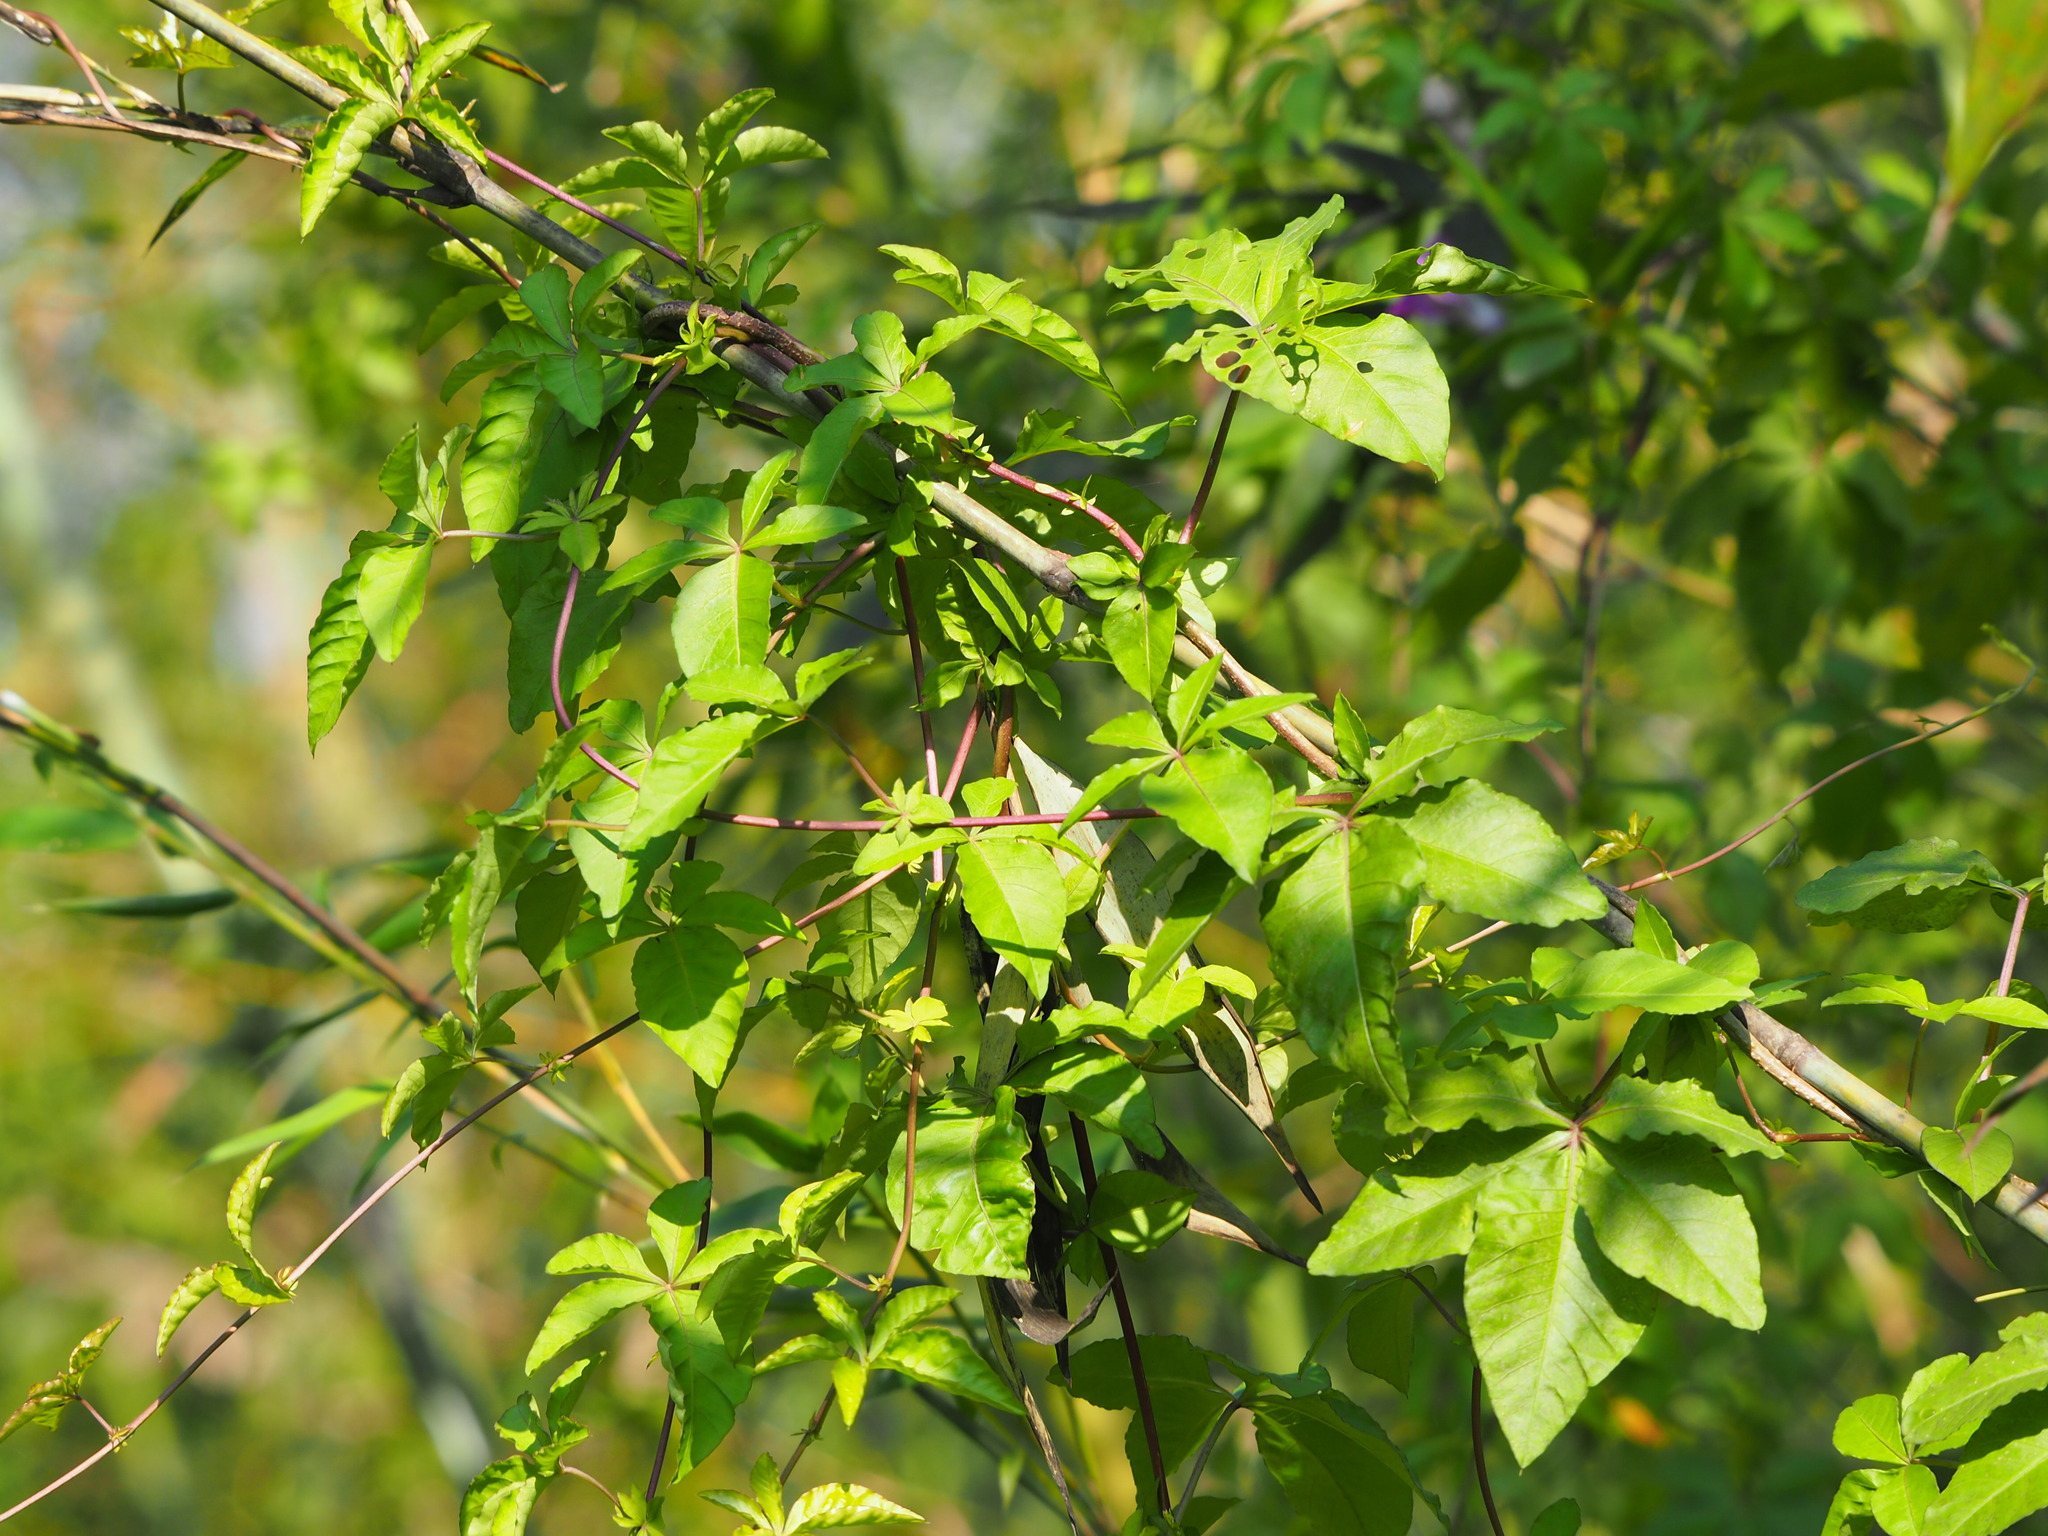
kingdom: Plantae
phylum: Tracheophyta
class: Magnoliopsida
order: Solanales
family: Convolvulaceae
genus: Ipomoea
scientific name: Ipomoea cairica
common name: Mile a minute vine
